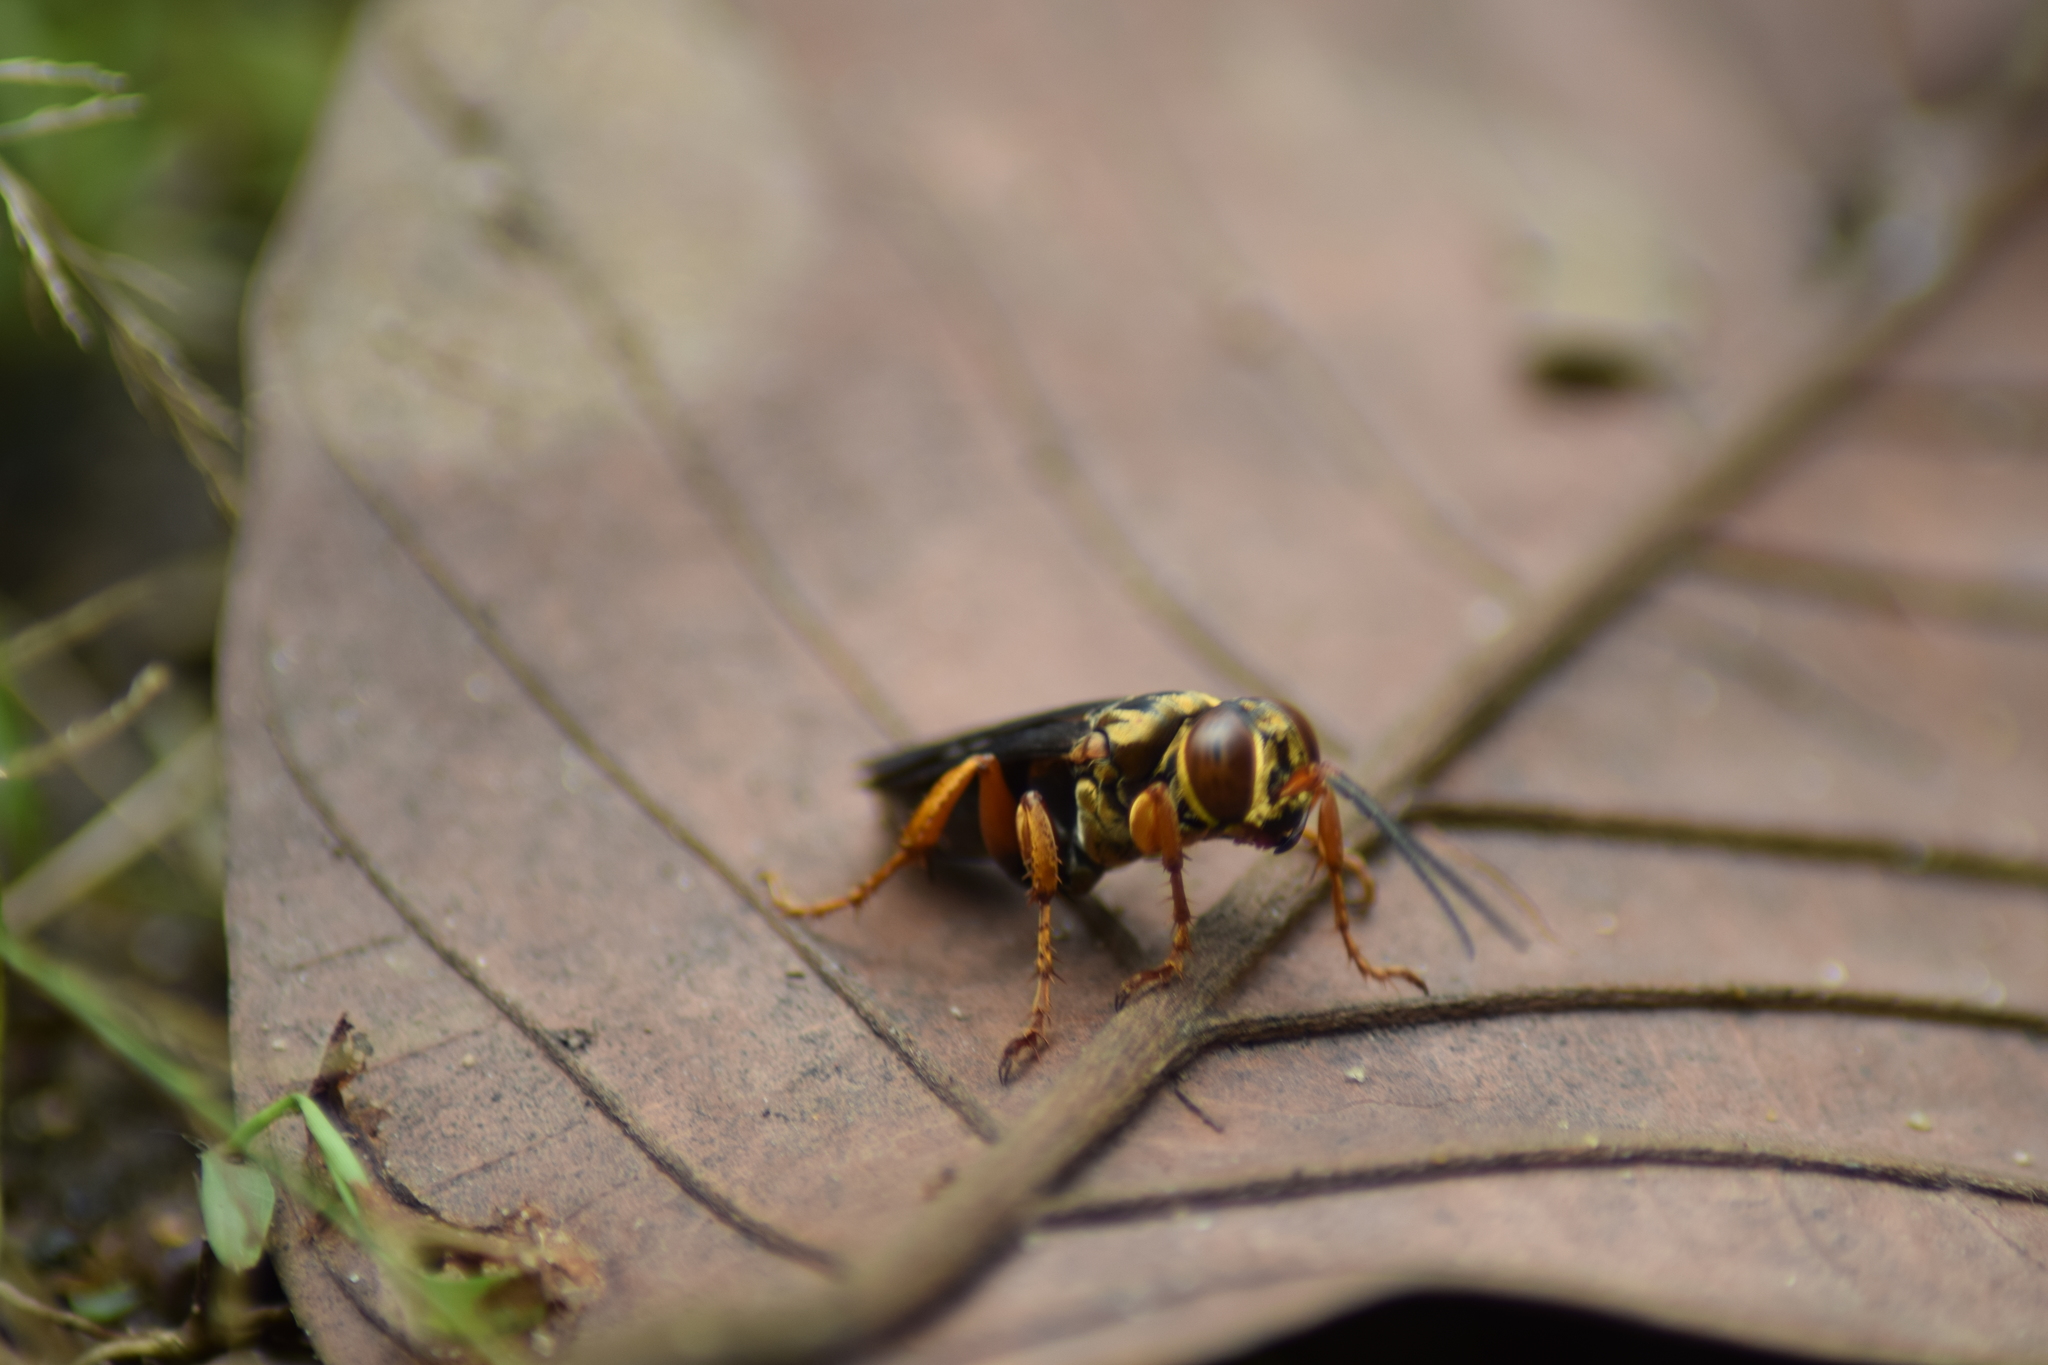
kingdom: Animalia
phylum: Arthropoda
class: Insecta
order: Hymenoptera
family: Crabronidae
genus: Liris
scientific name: Liris aurulentus
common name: Golden cricket wasp
